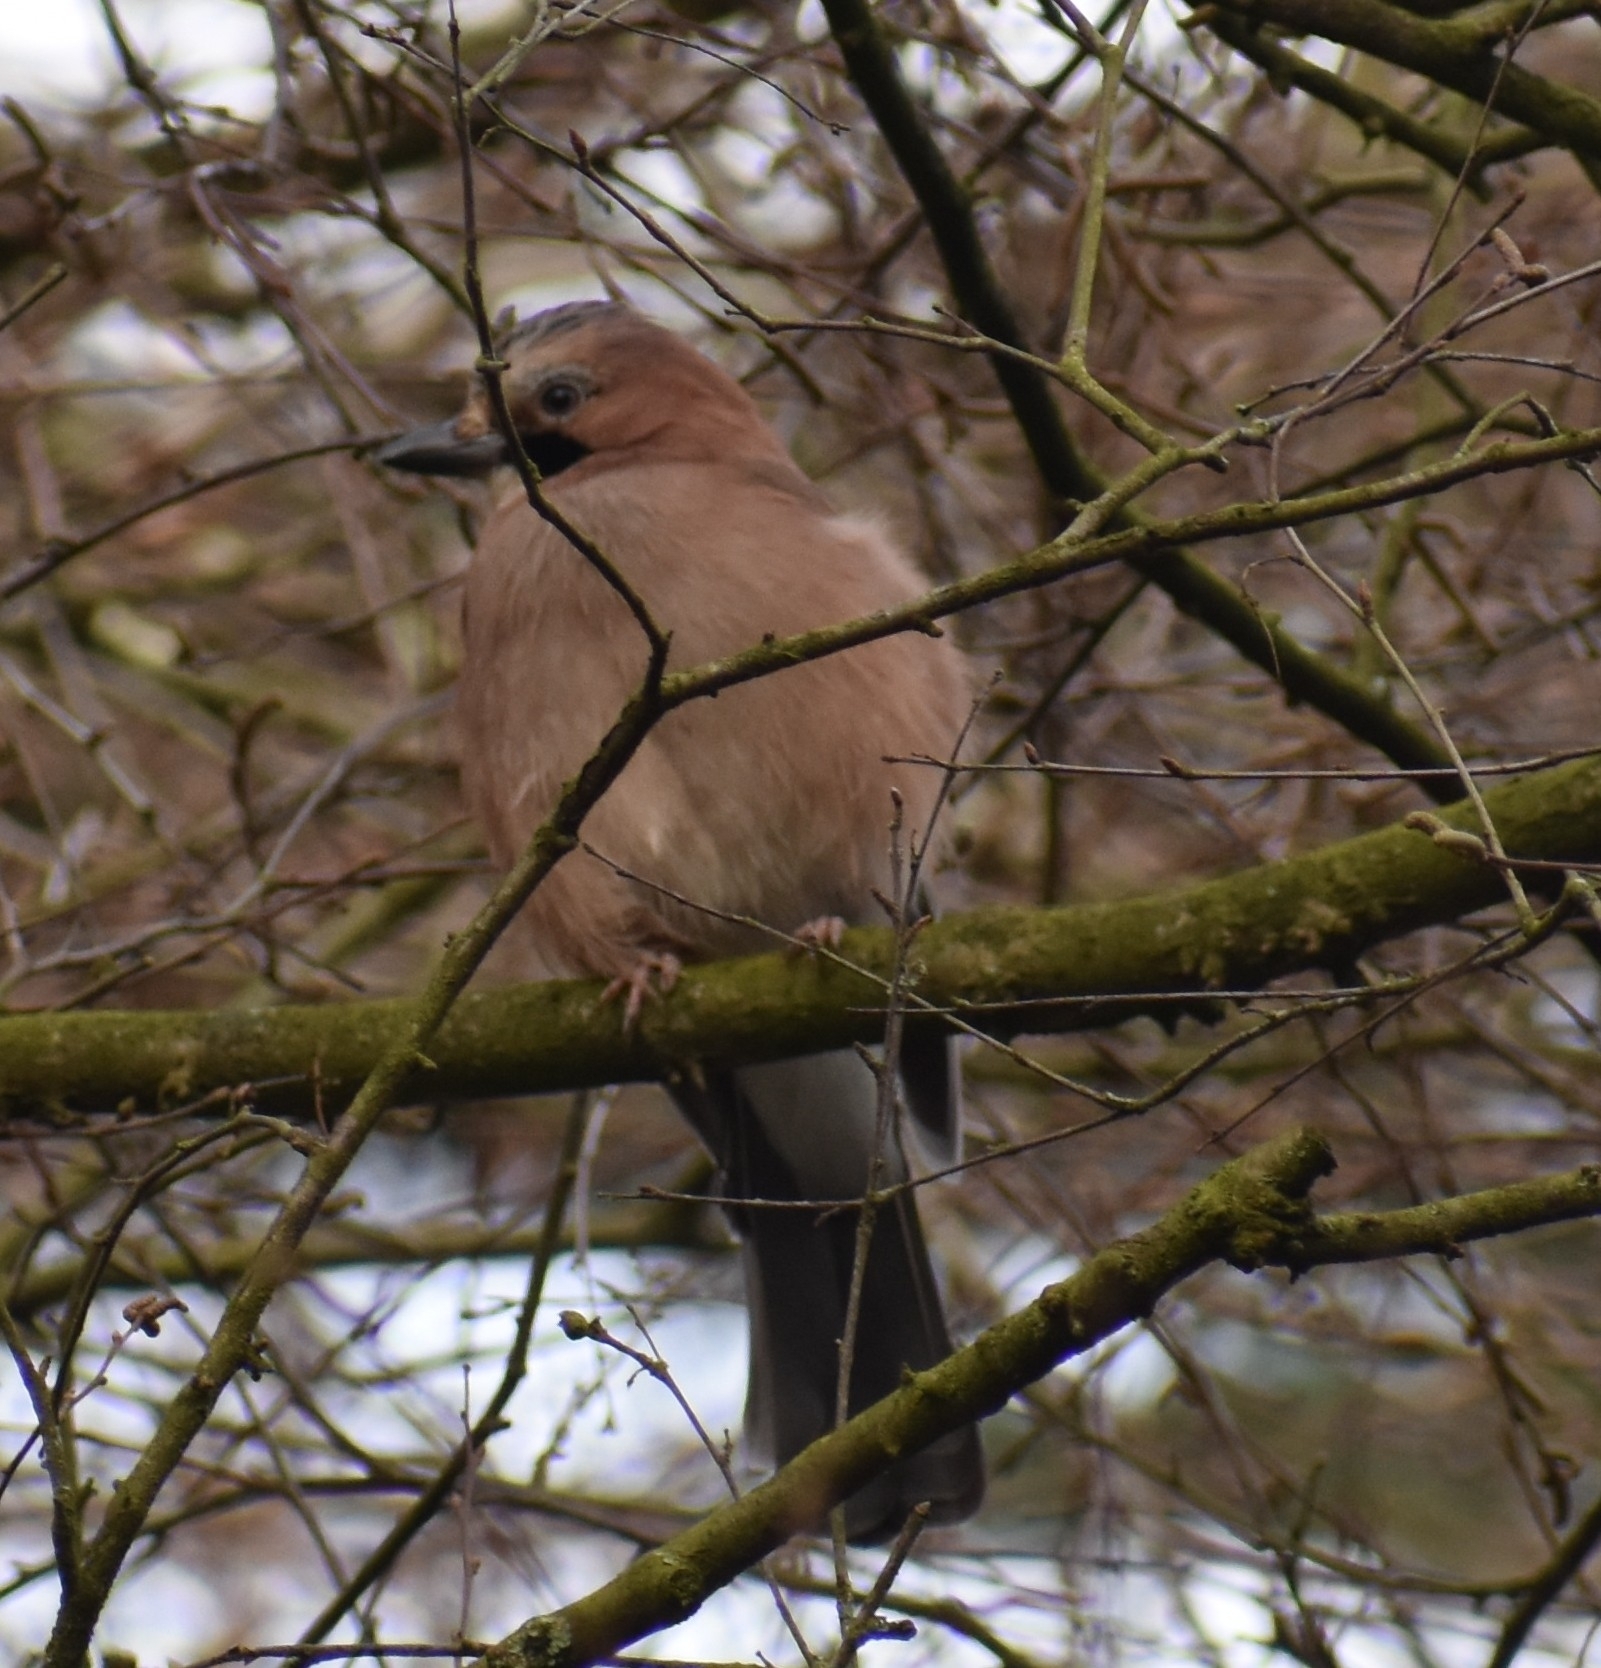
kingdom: Animalia
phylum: Chordata
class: Aves
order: Passeriformes
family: Corvidae
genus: Garrulus
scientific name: Garrulus glandarius
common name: Eurasian jay
